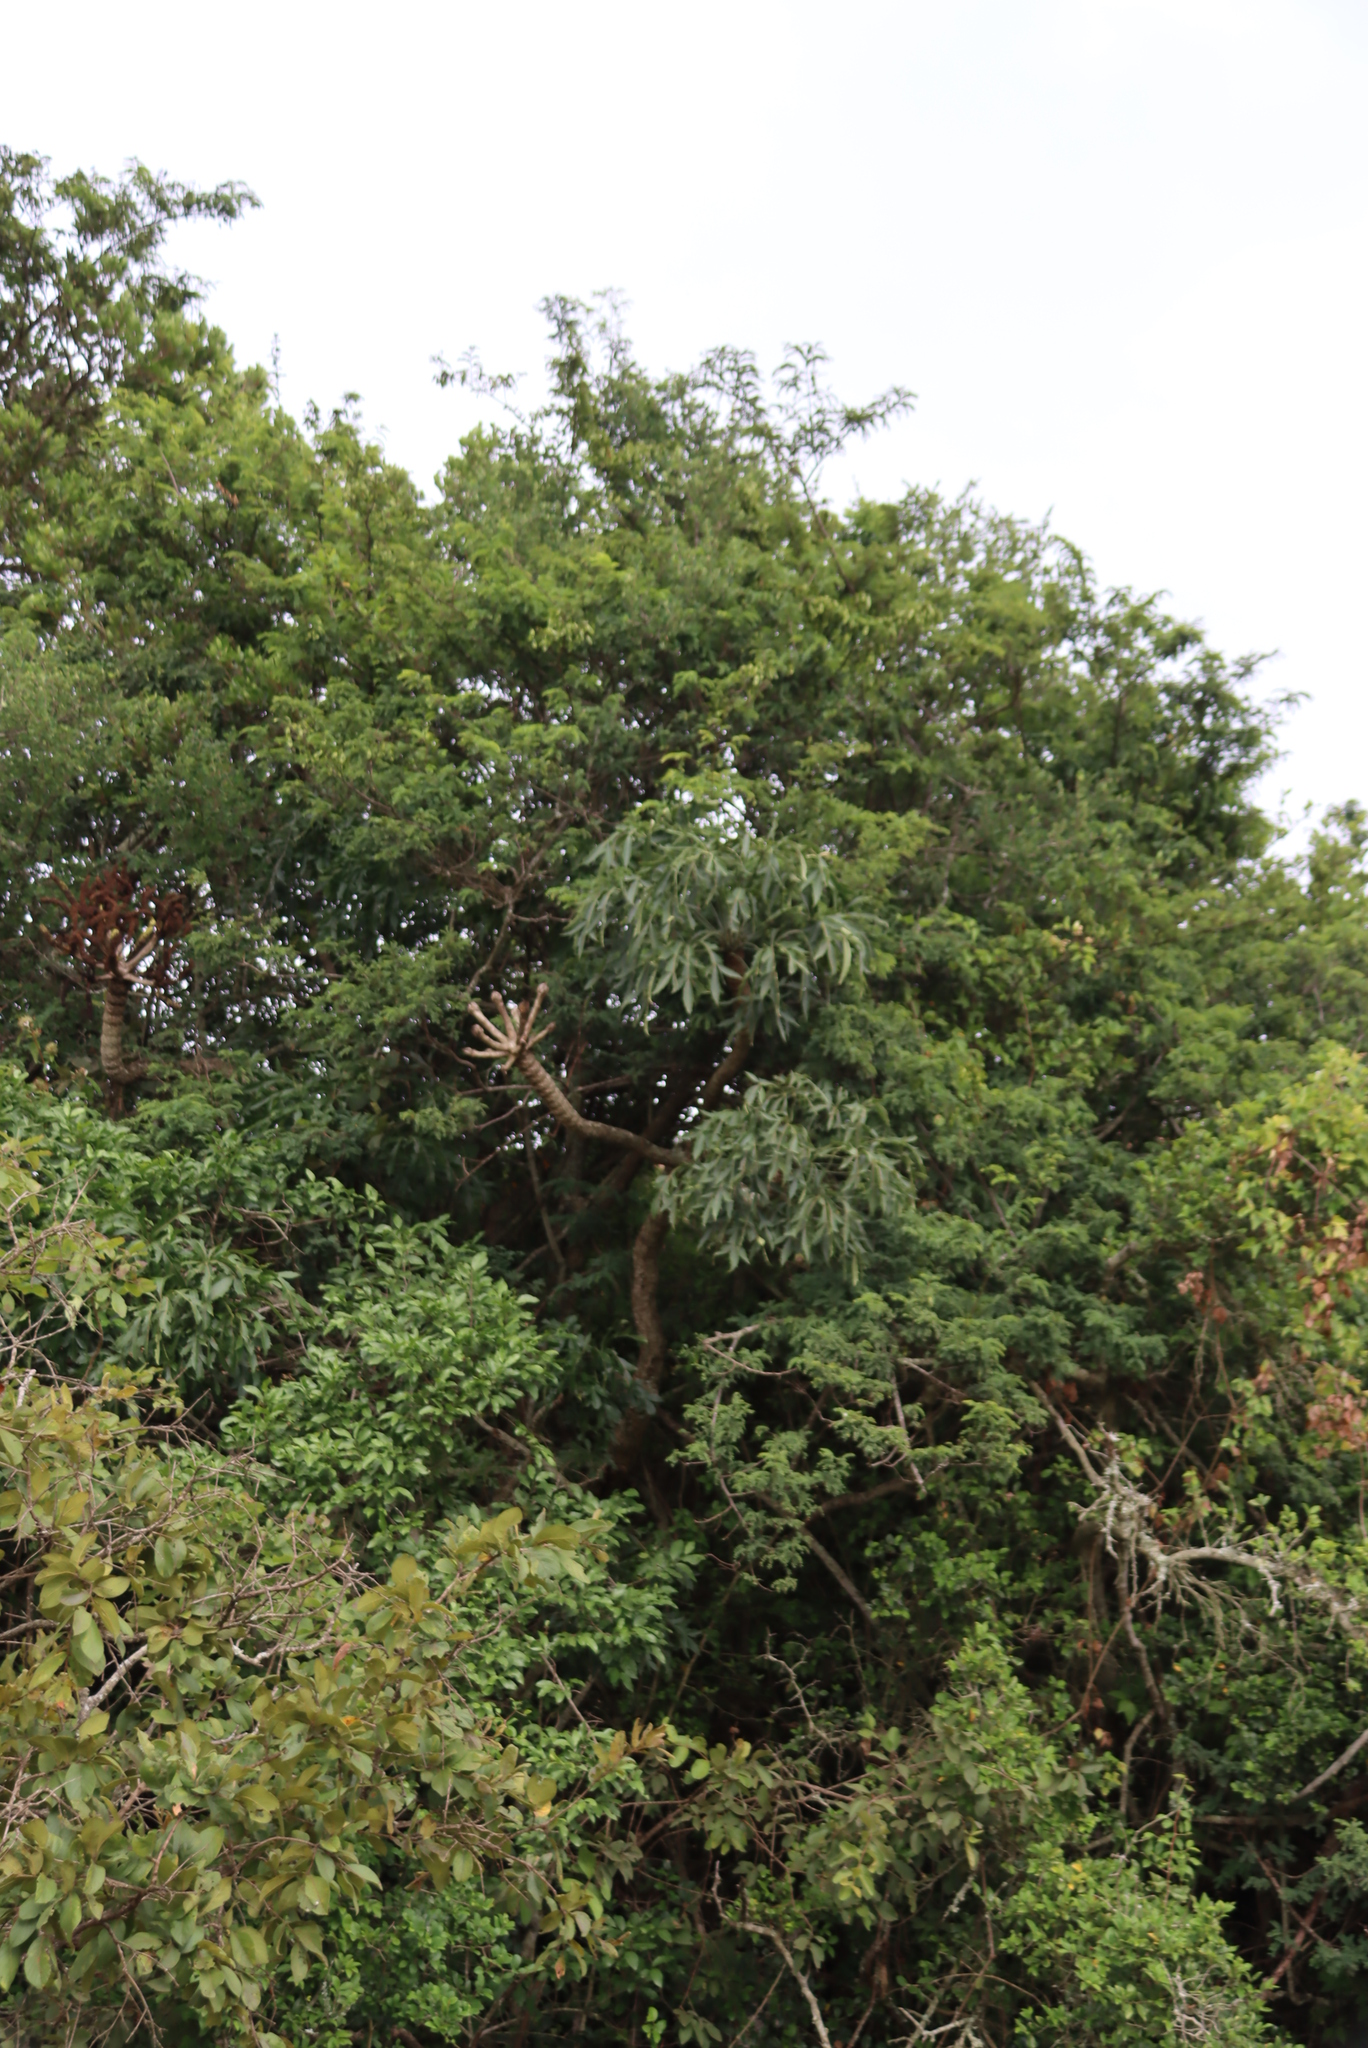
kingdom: Plantae
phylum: Tracheophyta
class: Magnoliopsida
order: Apiales
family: Araliaceae
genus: Cussonia
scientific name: Cussonia spicata
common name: Common cabbagetree
